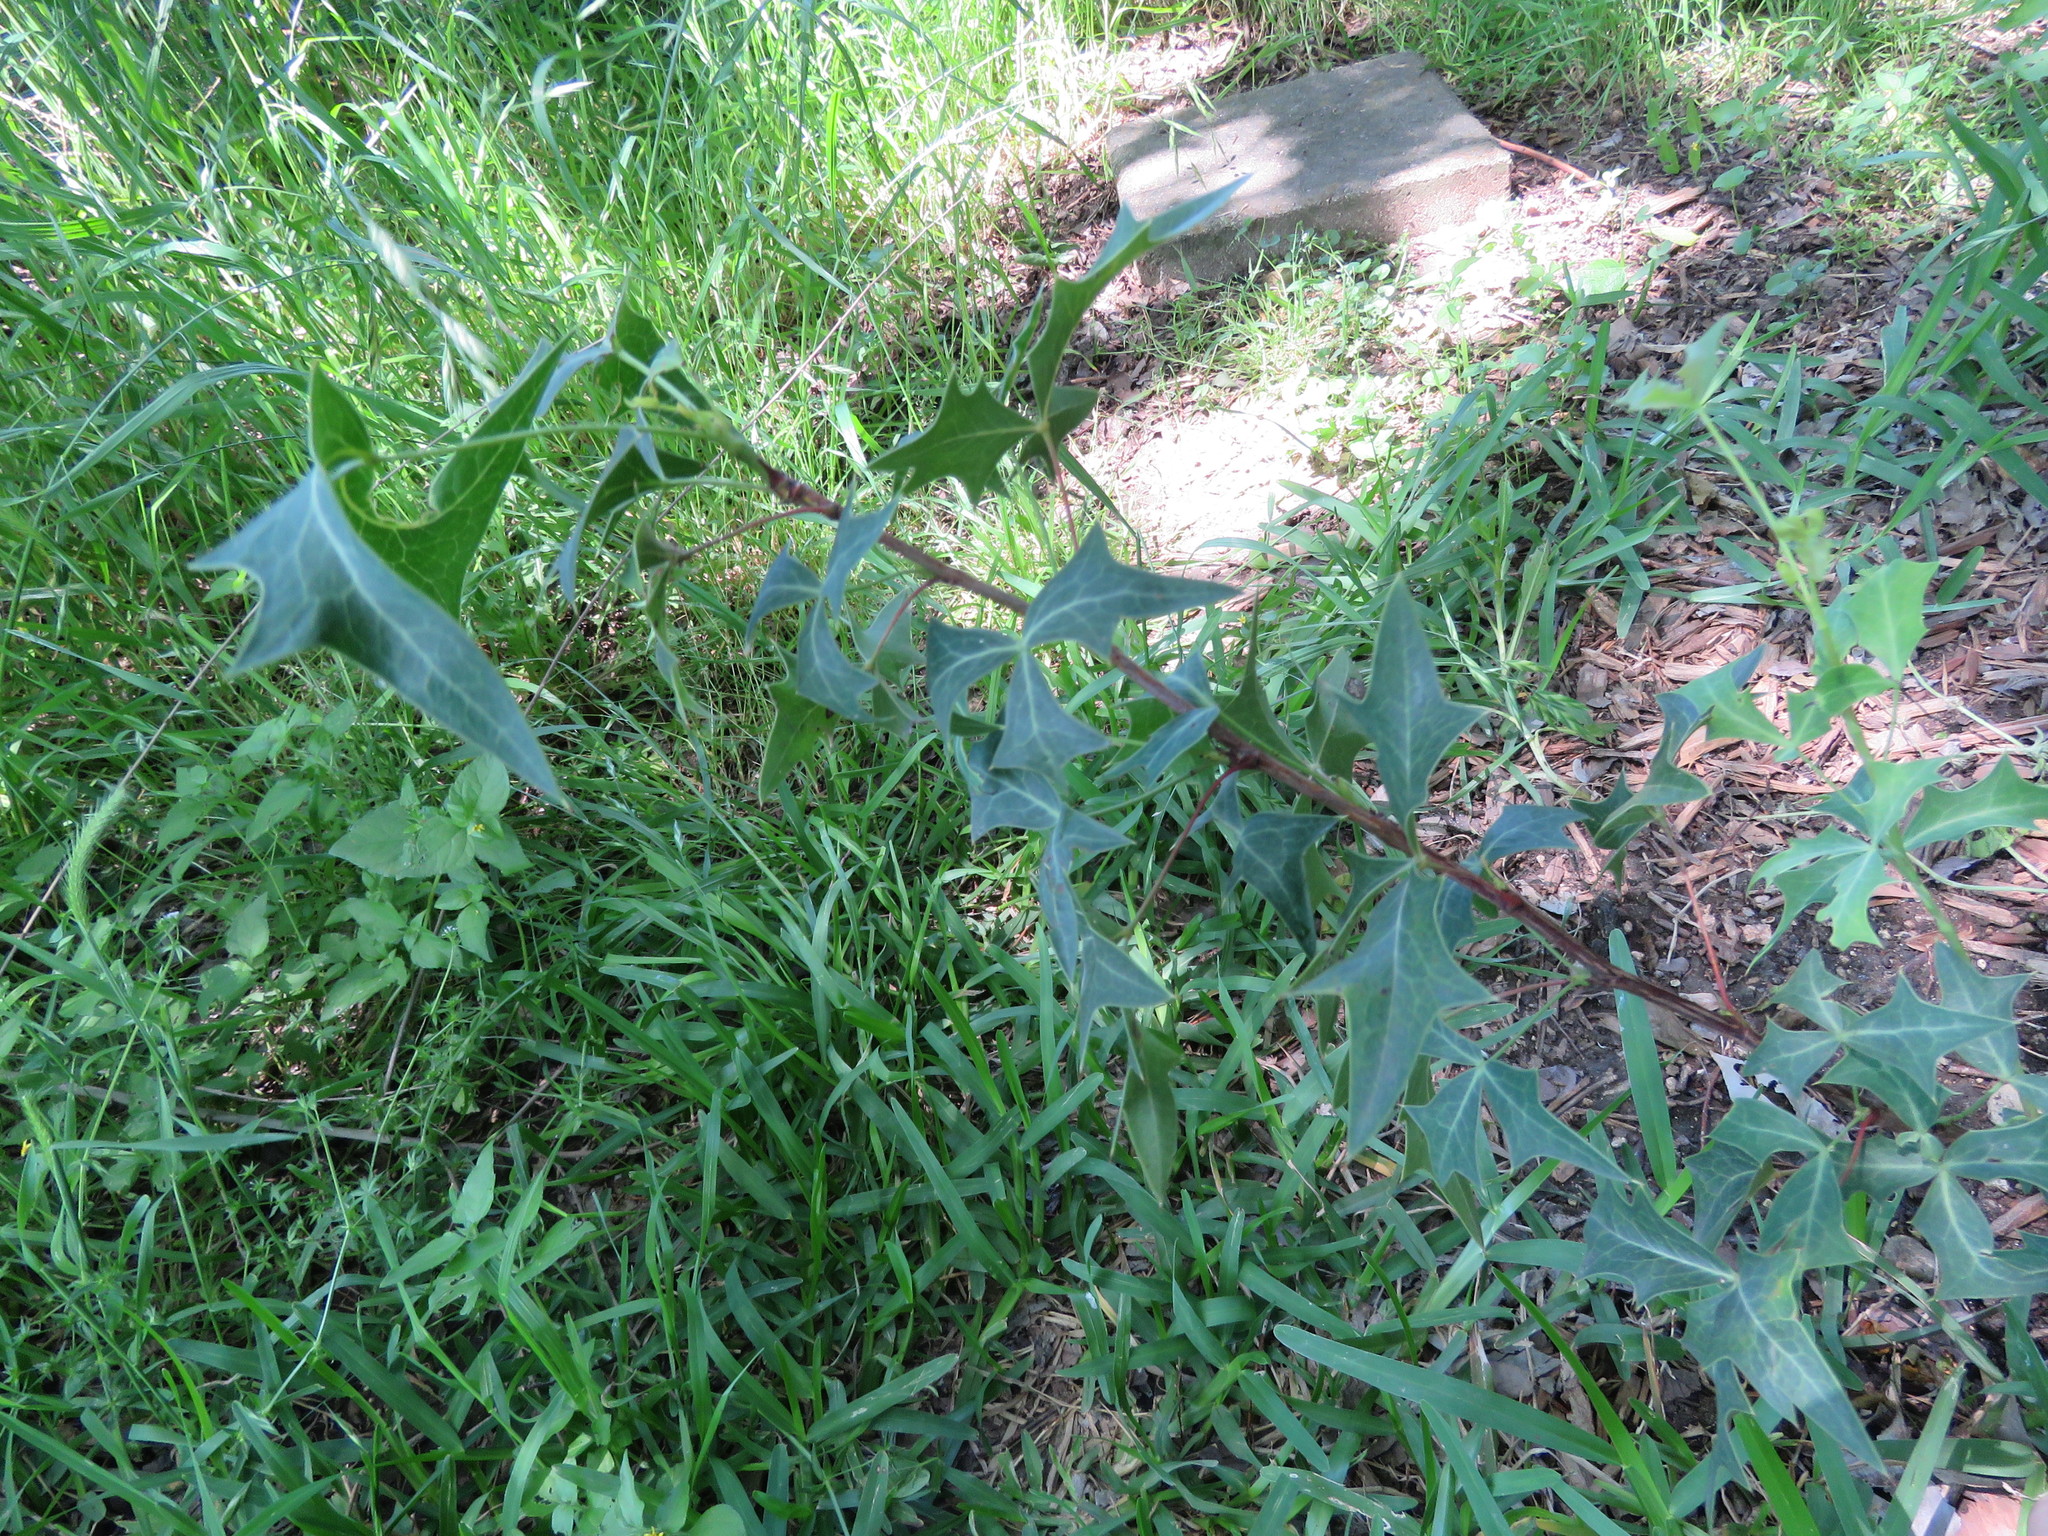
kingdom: Plantae
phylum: Tracheophyta
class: Magnoliopsida
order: Ranunculales
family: Berberidaceae
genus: Alloberberis
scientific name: Alloberberis trifoliolata
